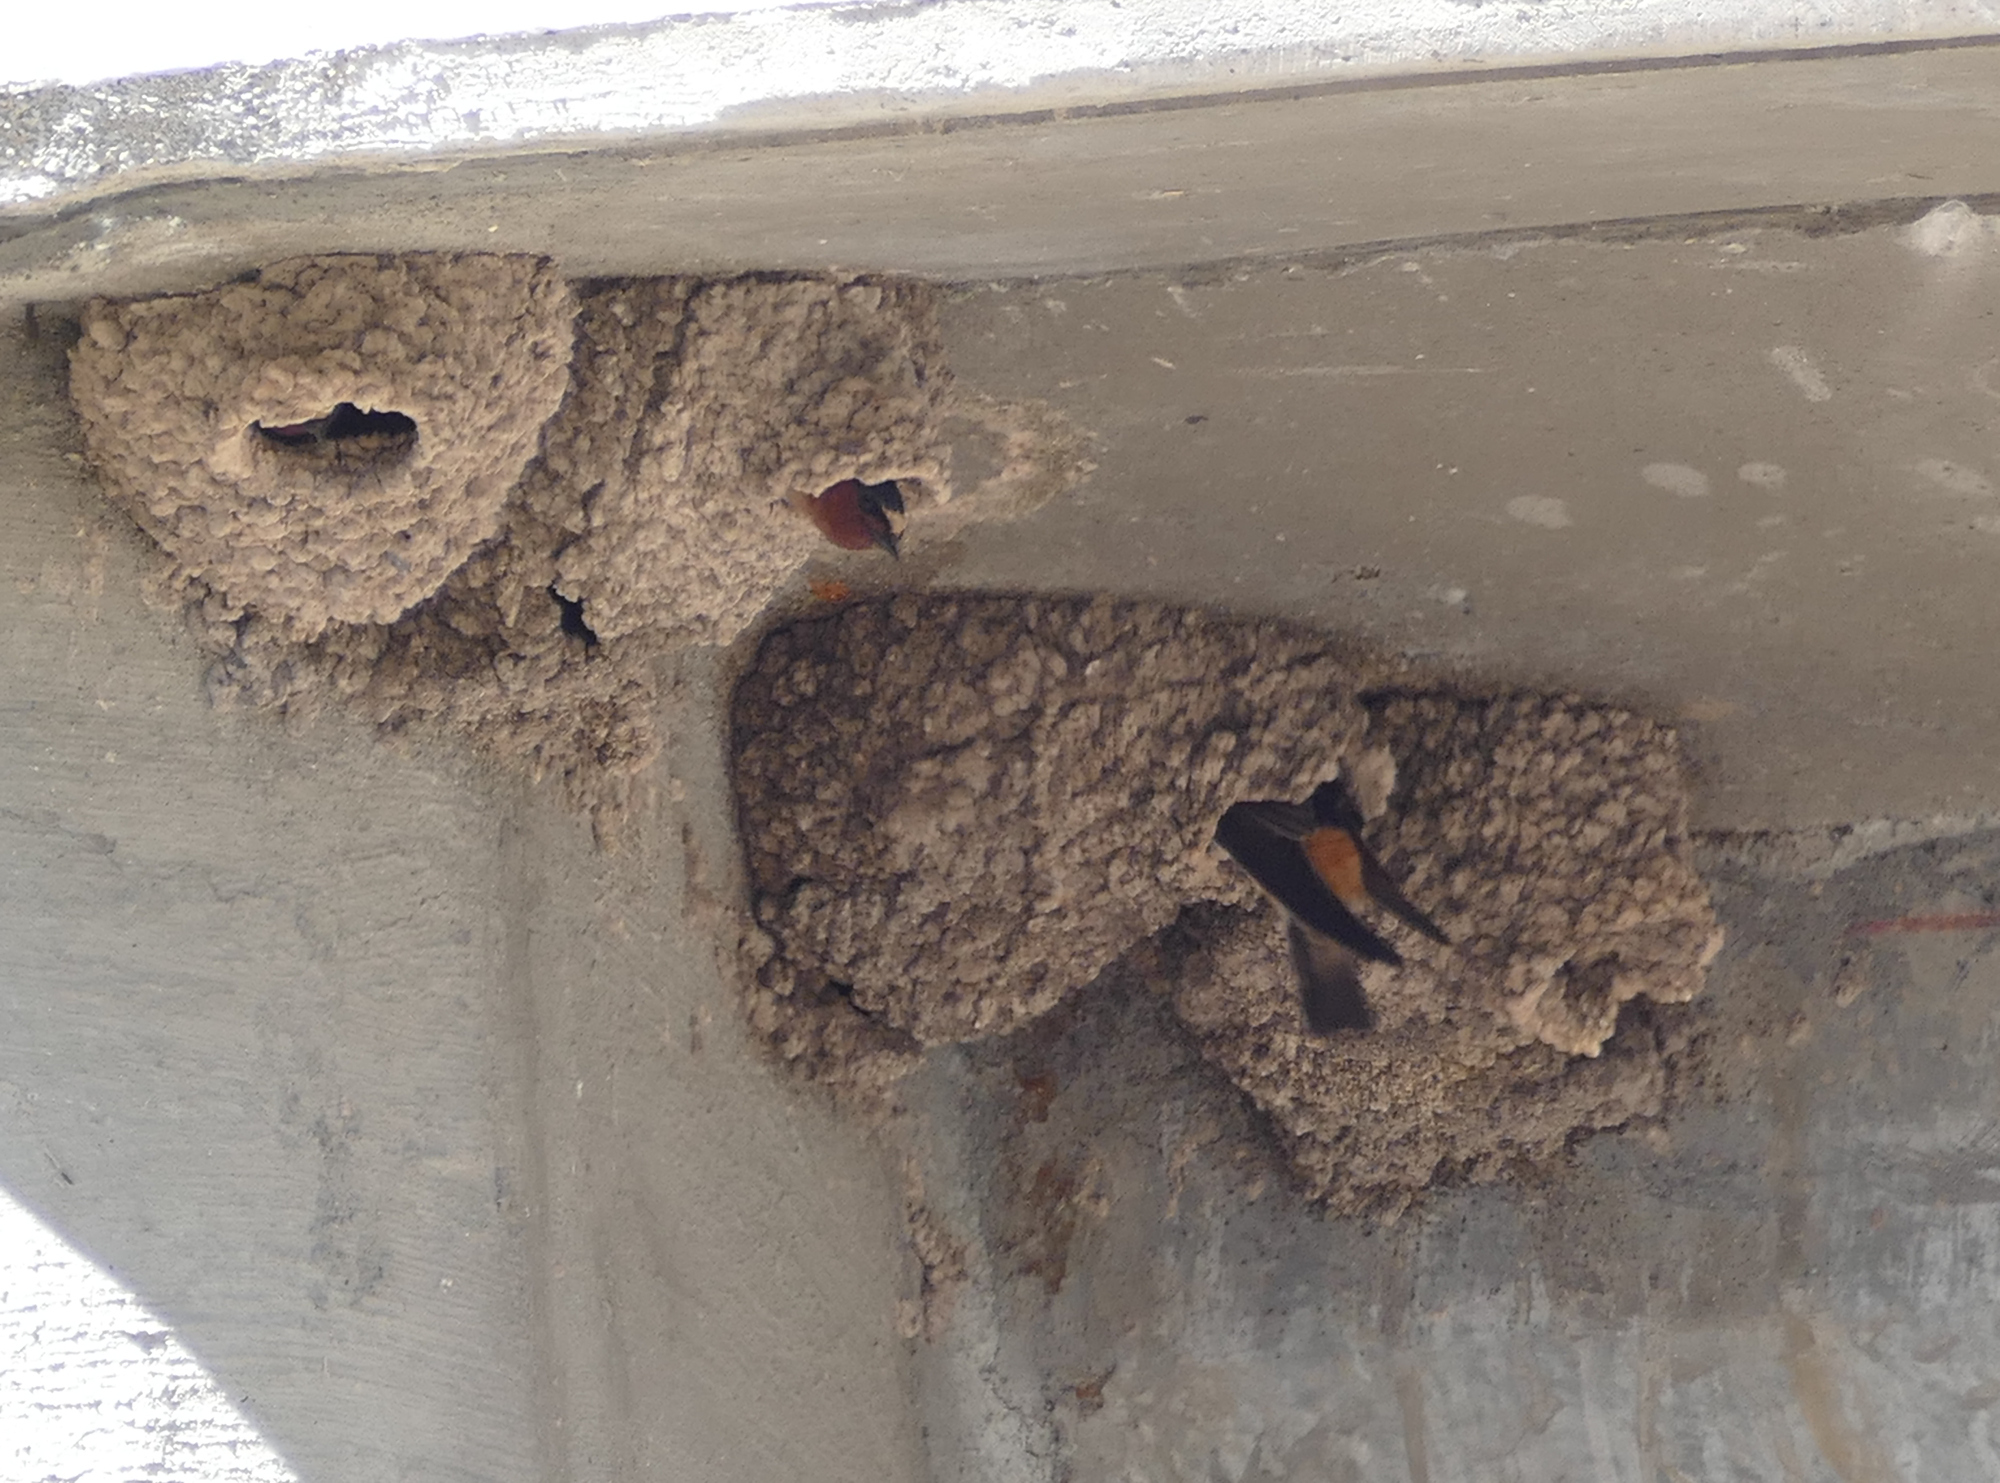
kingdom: Animalia
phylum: Chordata
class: Aves
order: Passeriformes
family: Hirundinidae
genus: Petrochelidon
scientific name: Petrochelidon pyrrhonota
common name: American cliff swallow
